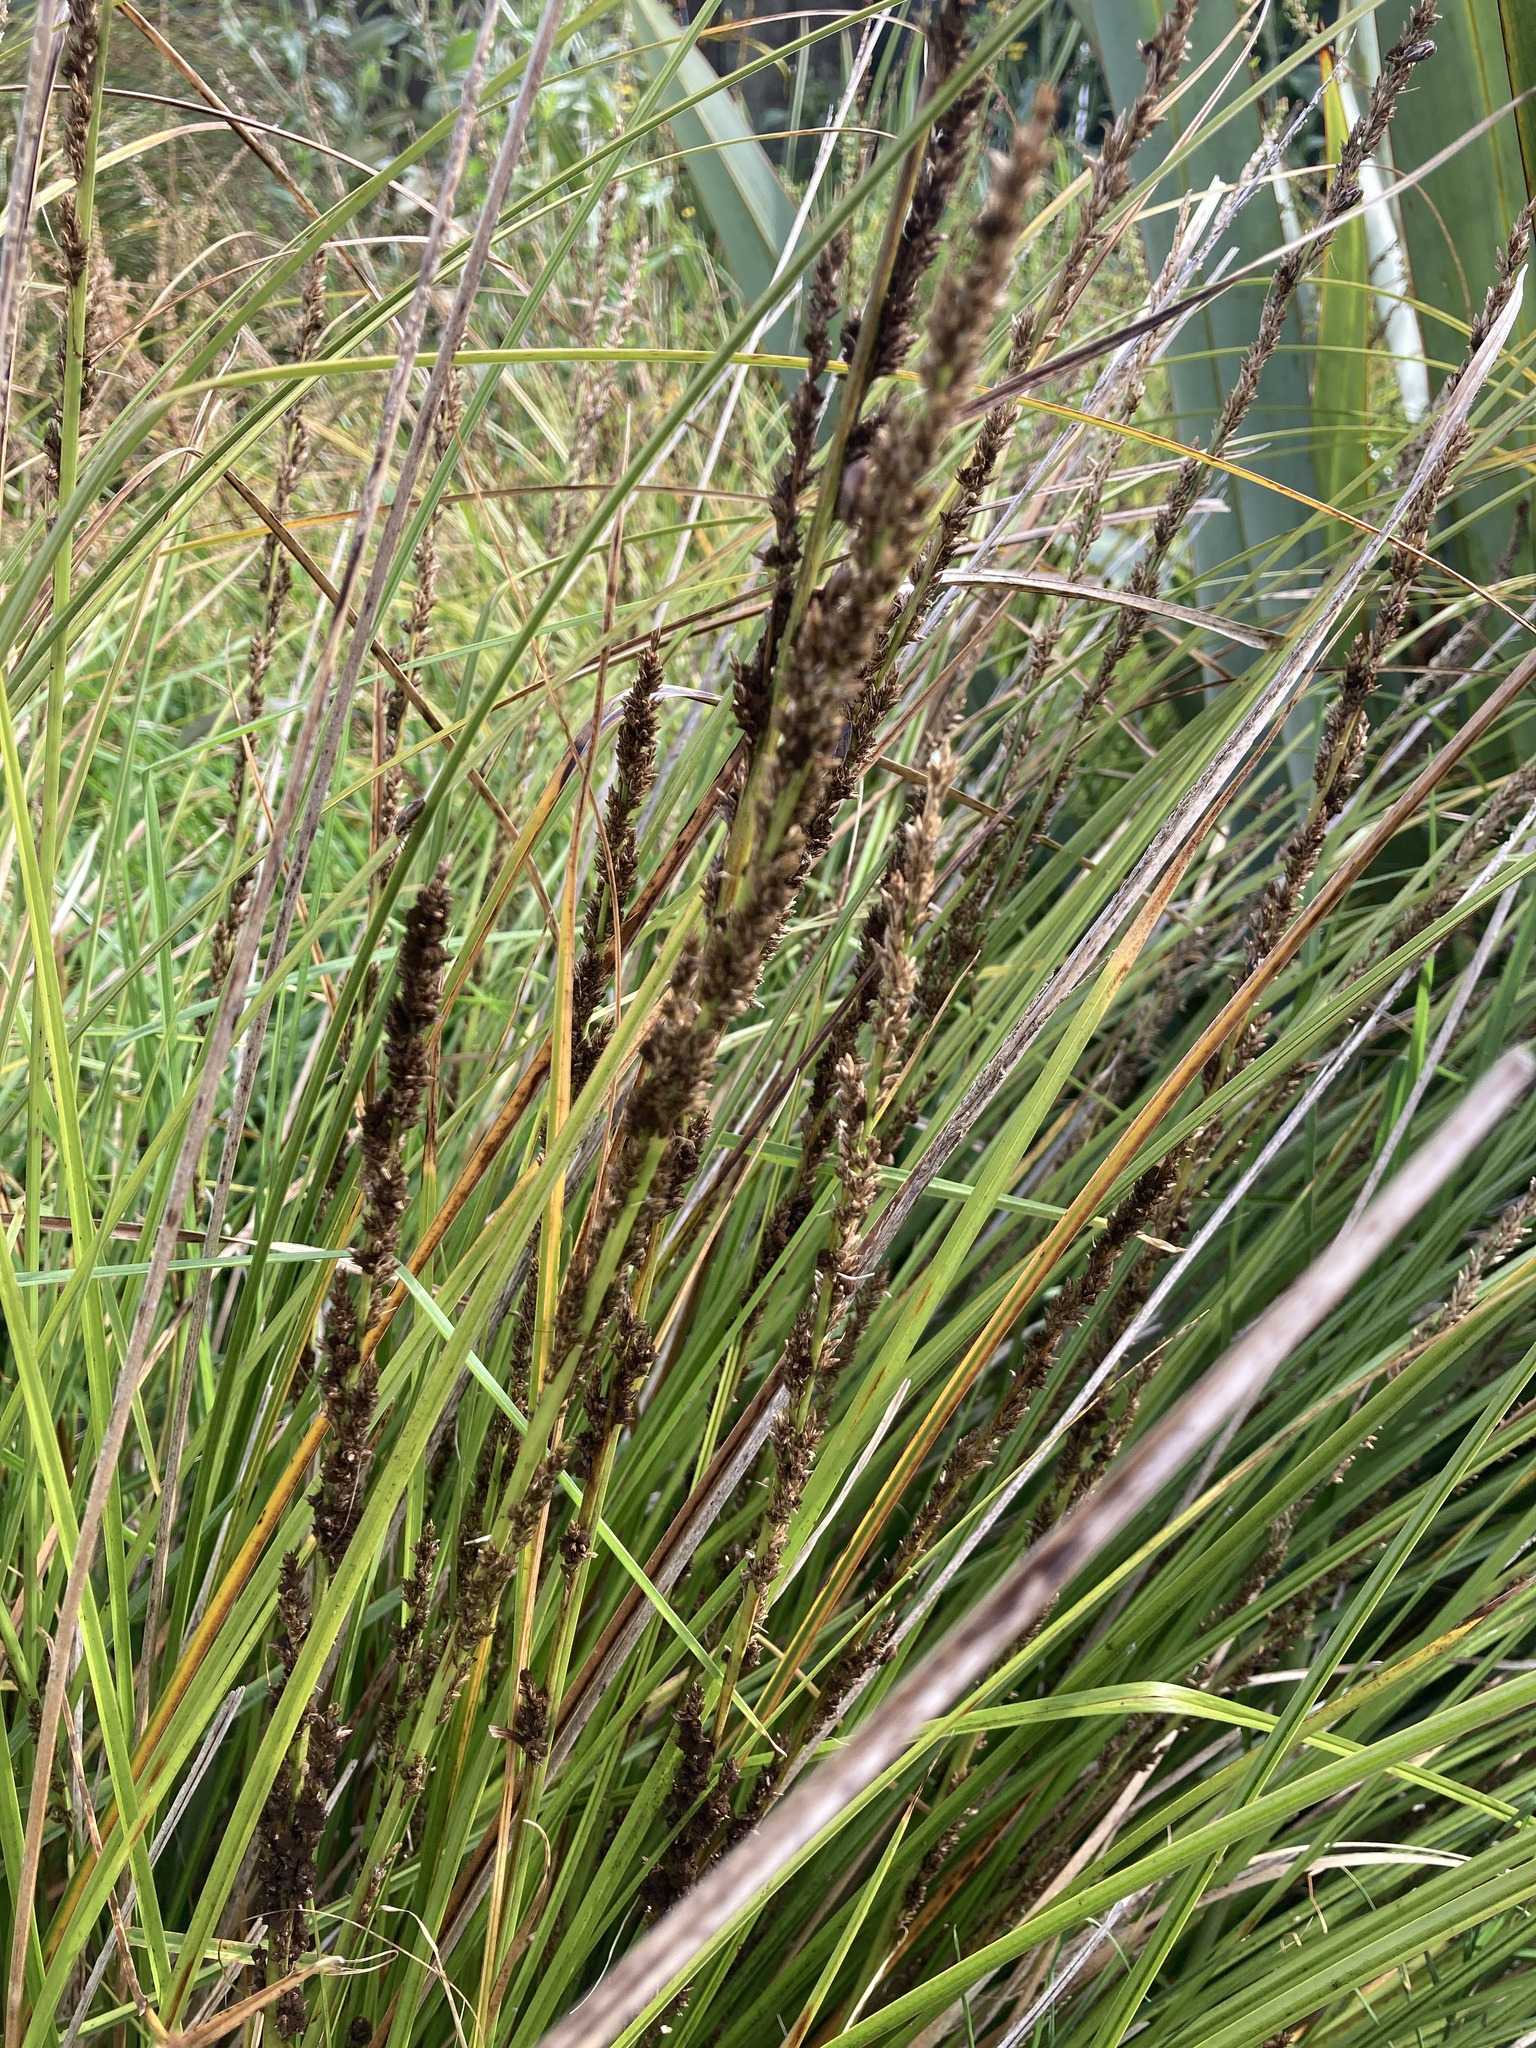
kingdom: Plantae
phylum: Tracheophyta
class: Liliopsida
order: Poales
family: Cyperaceae
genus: Carex
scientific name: Carex virgata
